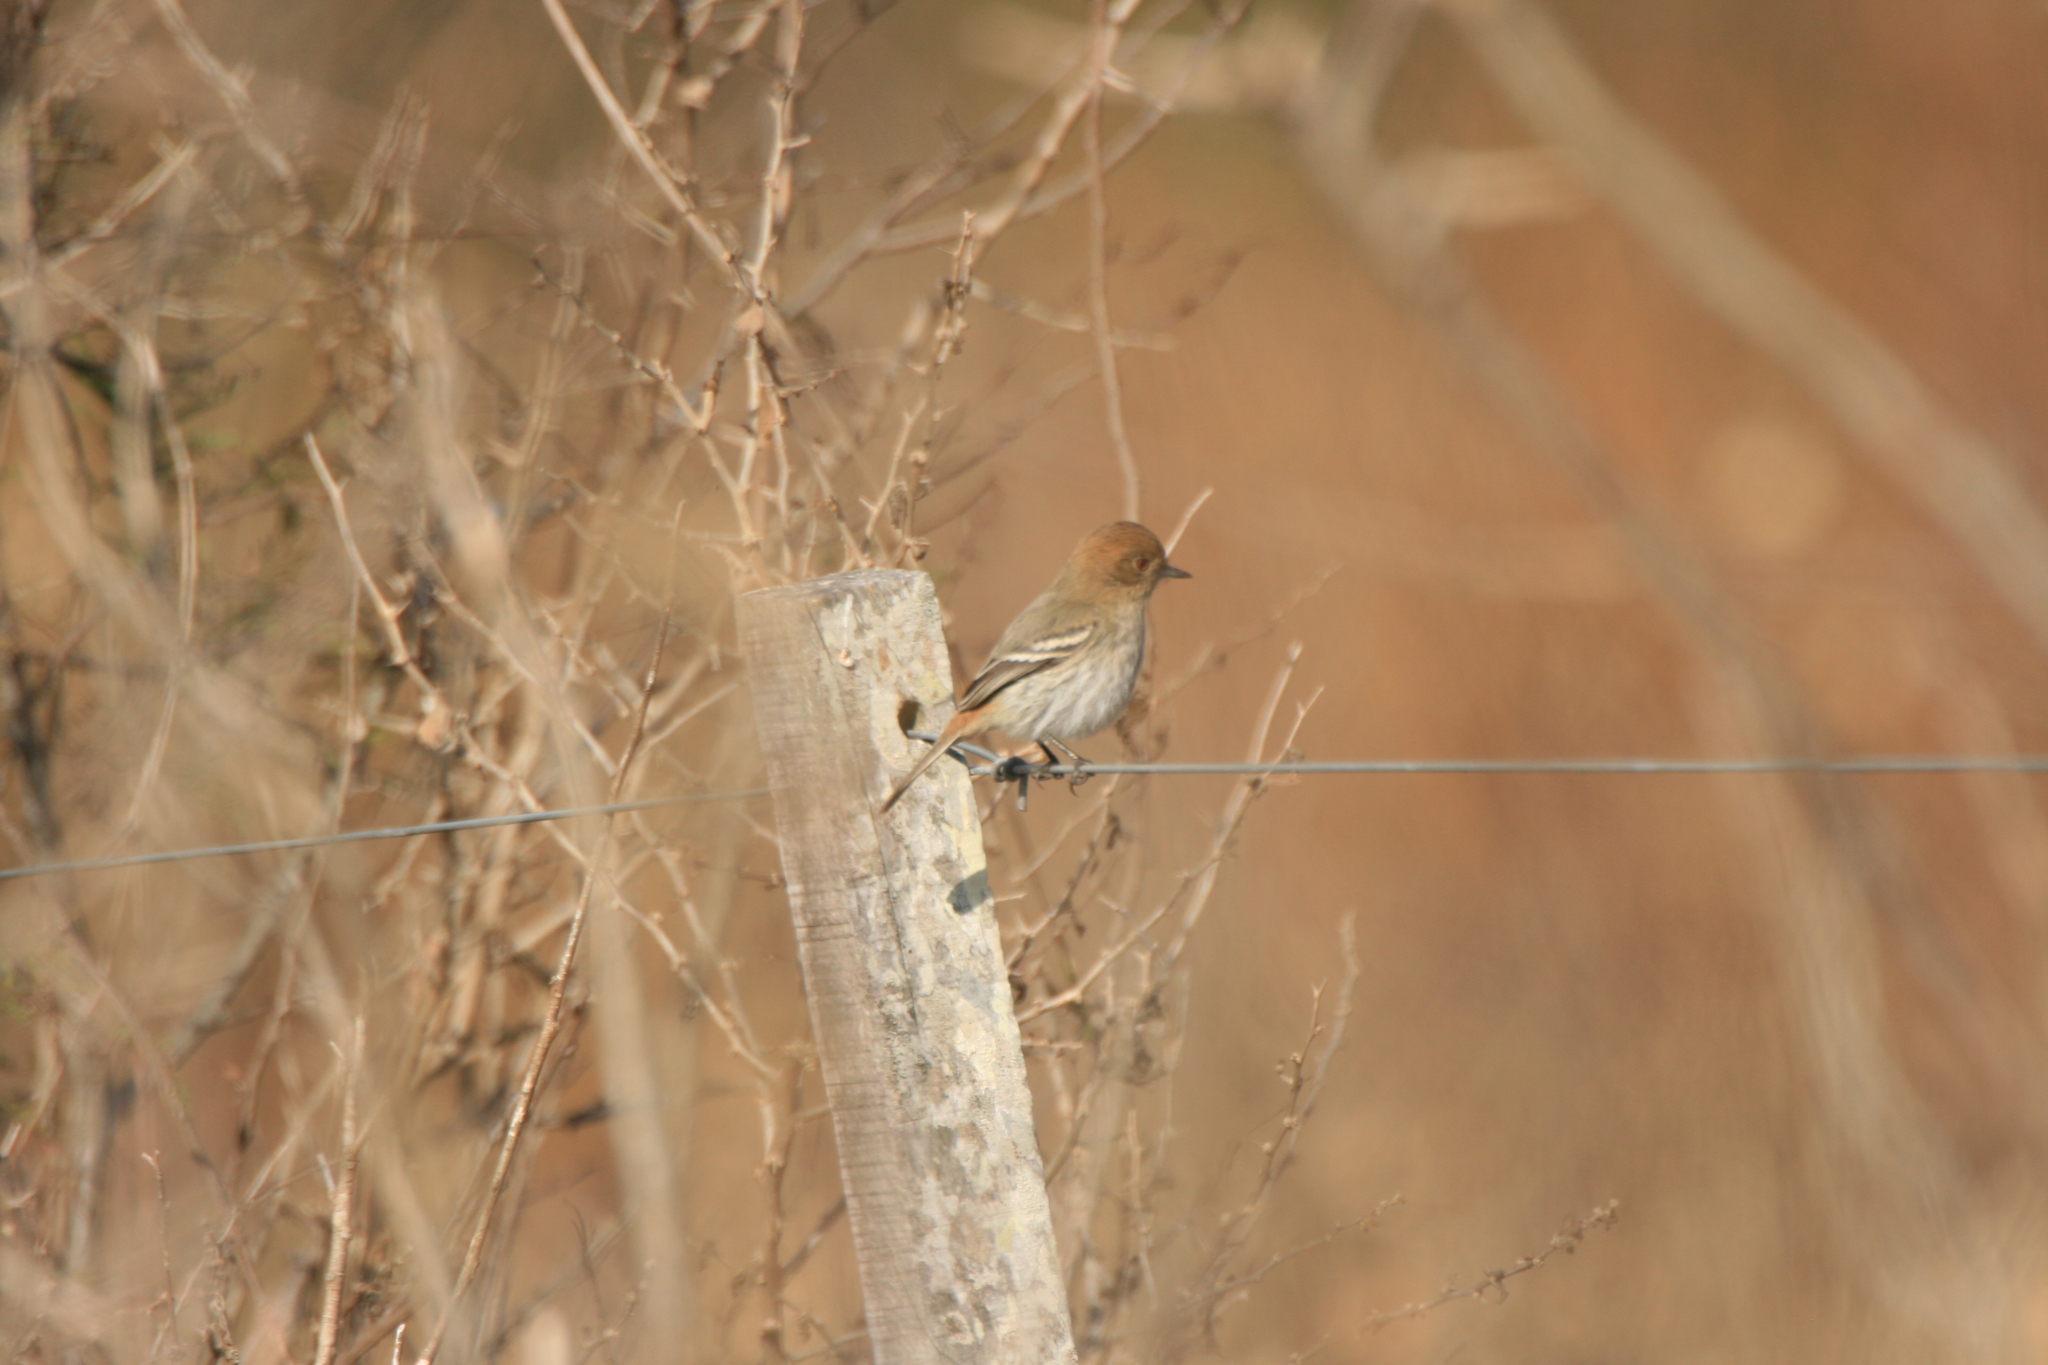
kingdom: Animalia
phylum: Chordata
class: Aves
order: Passeriformes
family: Tyrannidae
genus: Knipolegus
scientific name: Knipolegus striaticeps
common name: Cinereous tyrant
